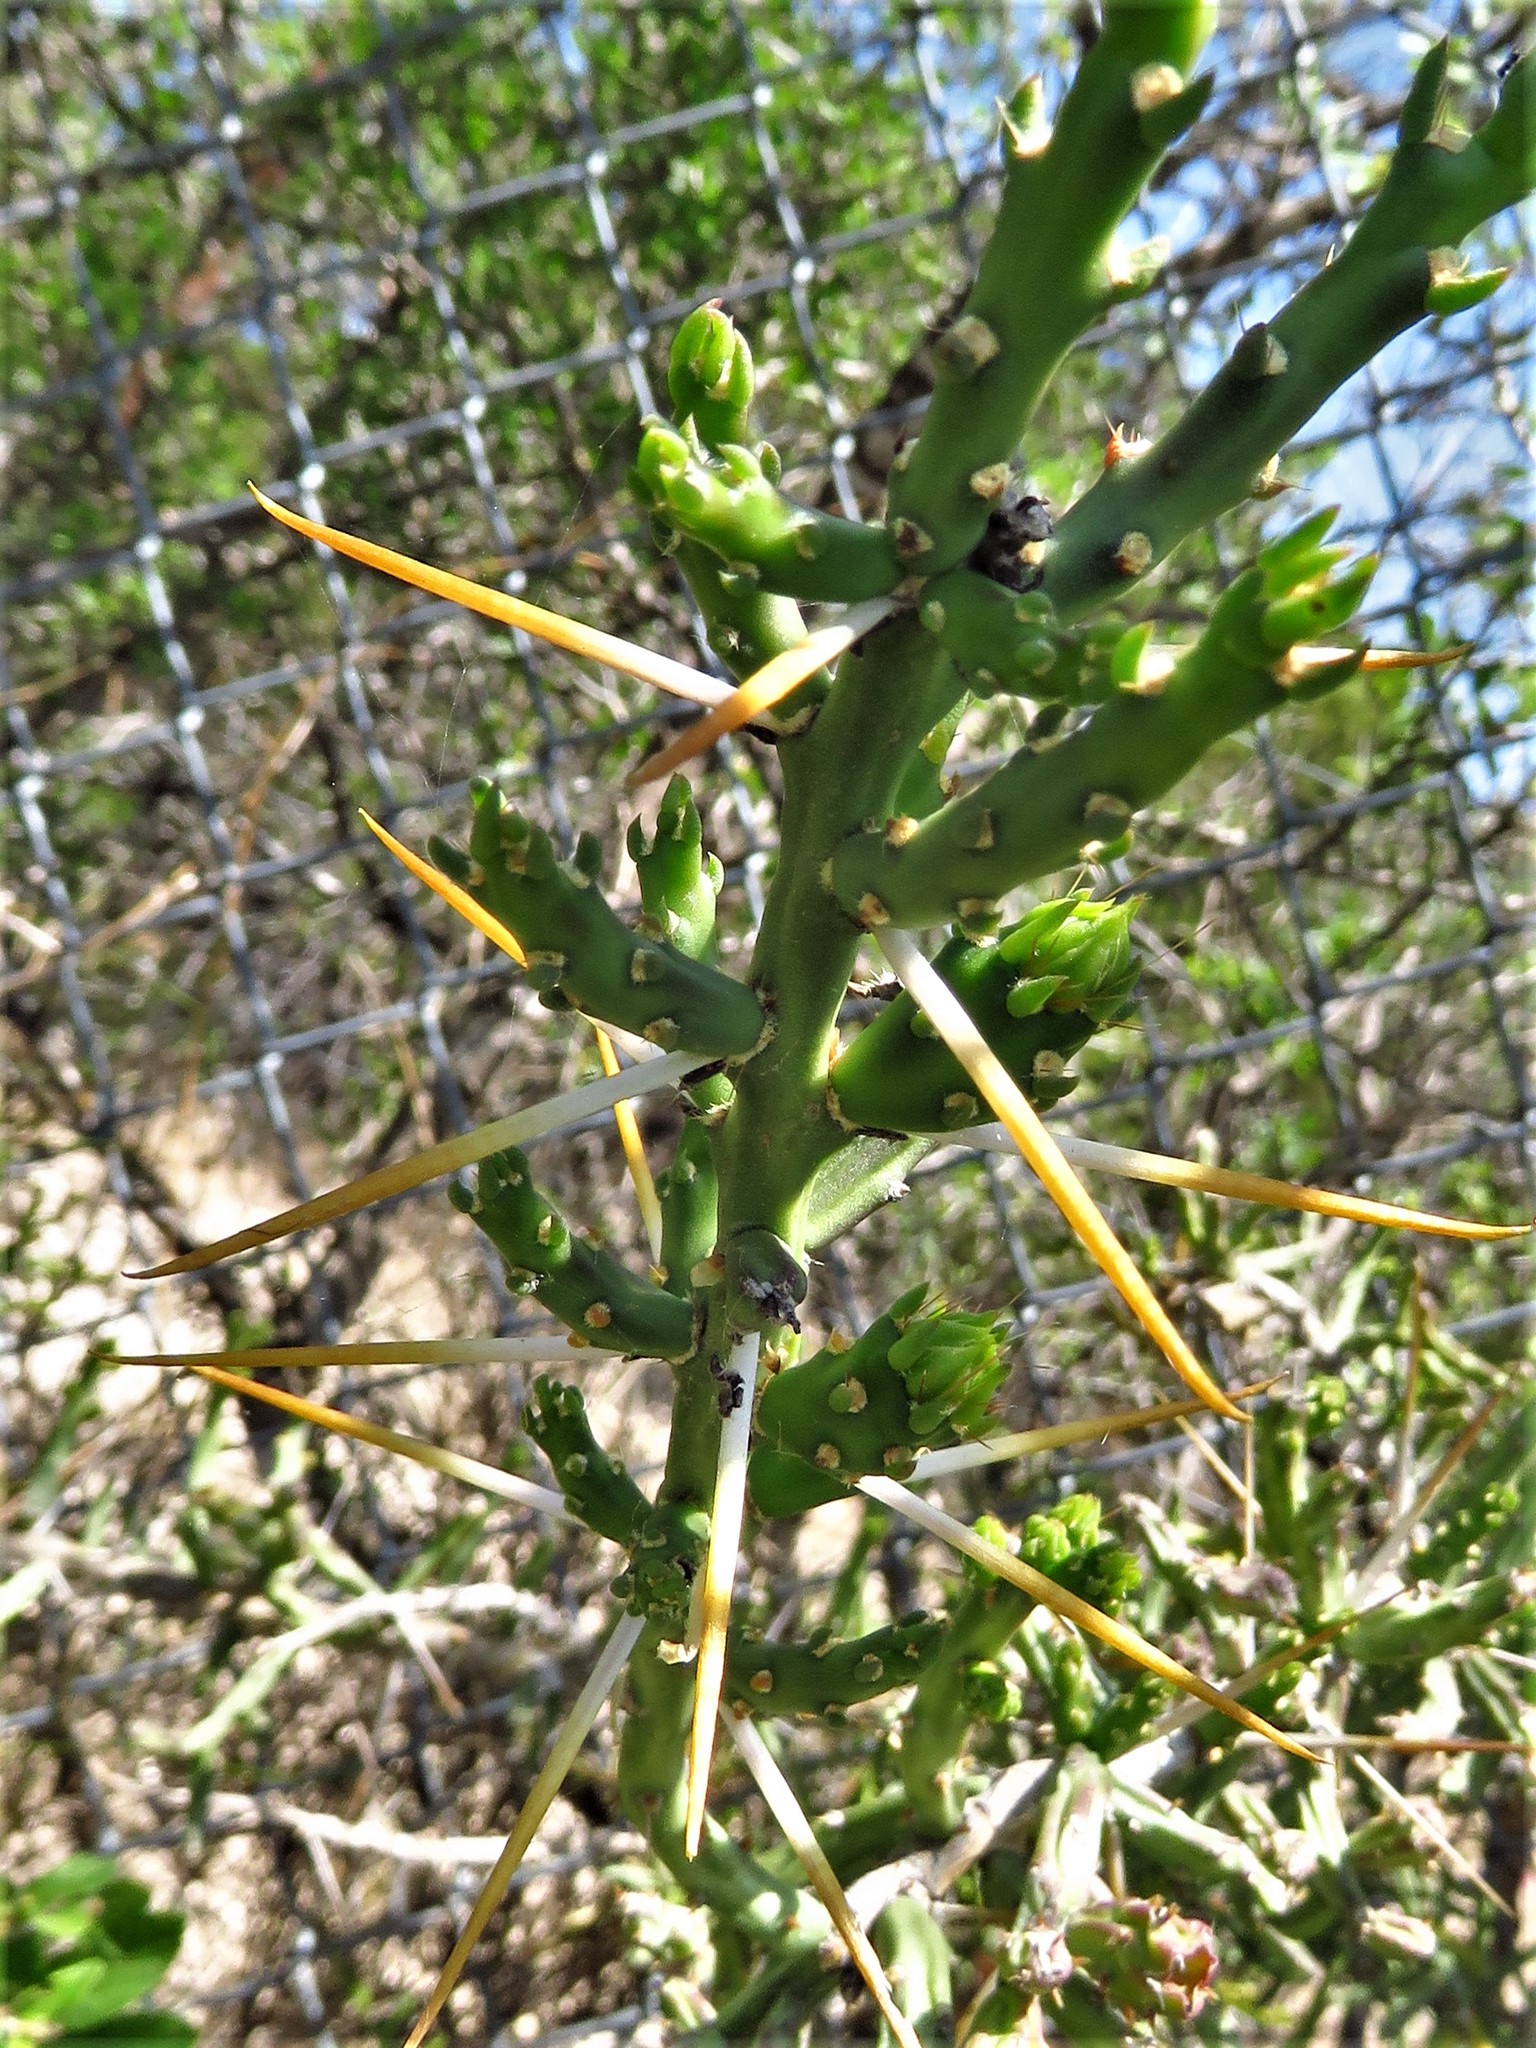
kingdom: Plantae
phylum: Tracheophyta
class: Magnoliopsida
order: Caryophyllales
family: Cactaceae
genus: Cylindropuntia
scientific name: Cylindropuntia leptocaulis
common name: Christmas cactus
